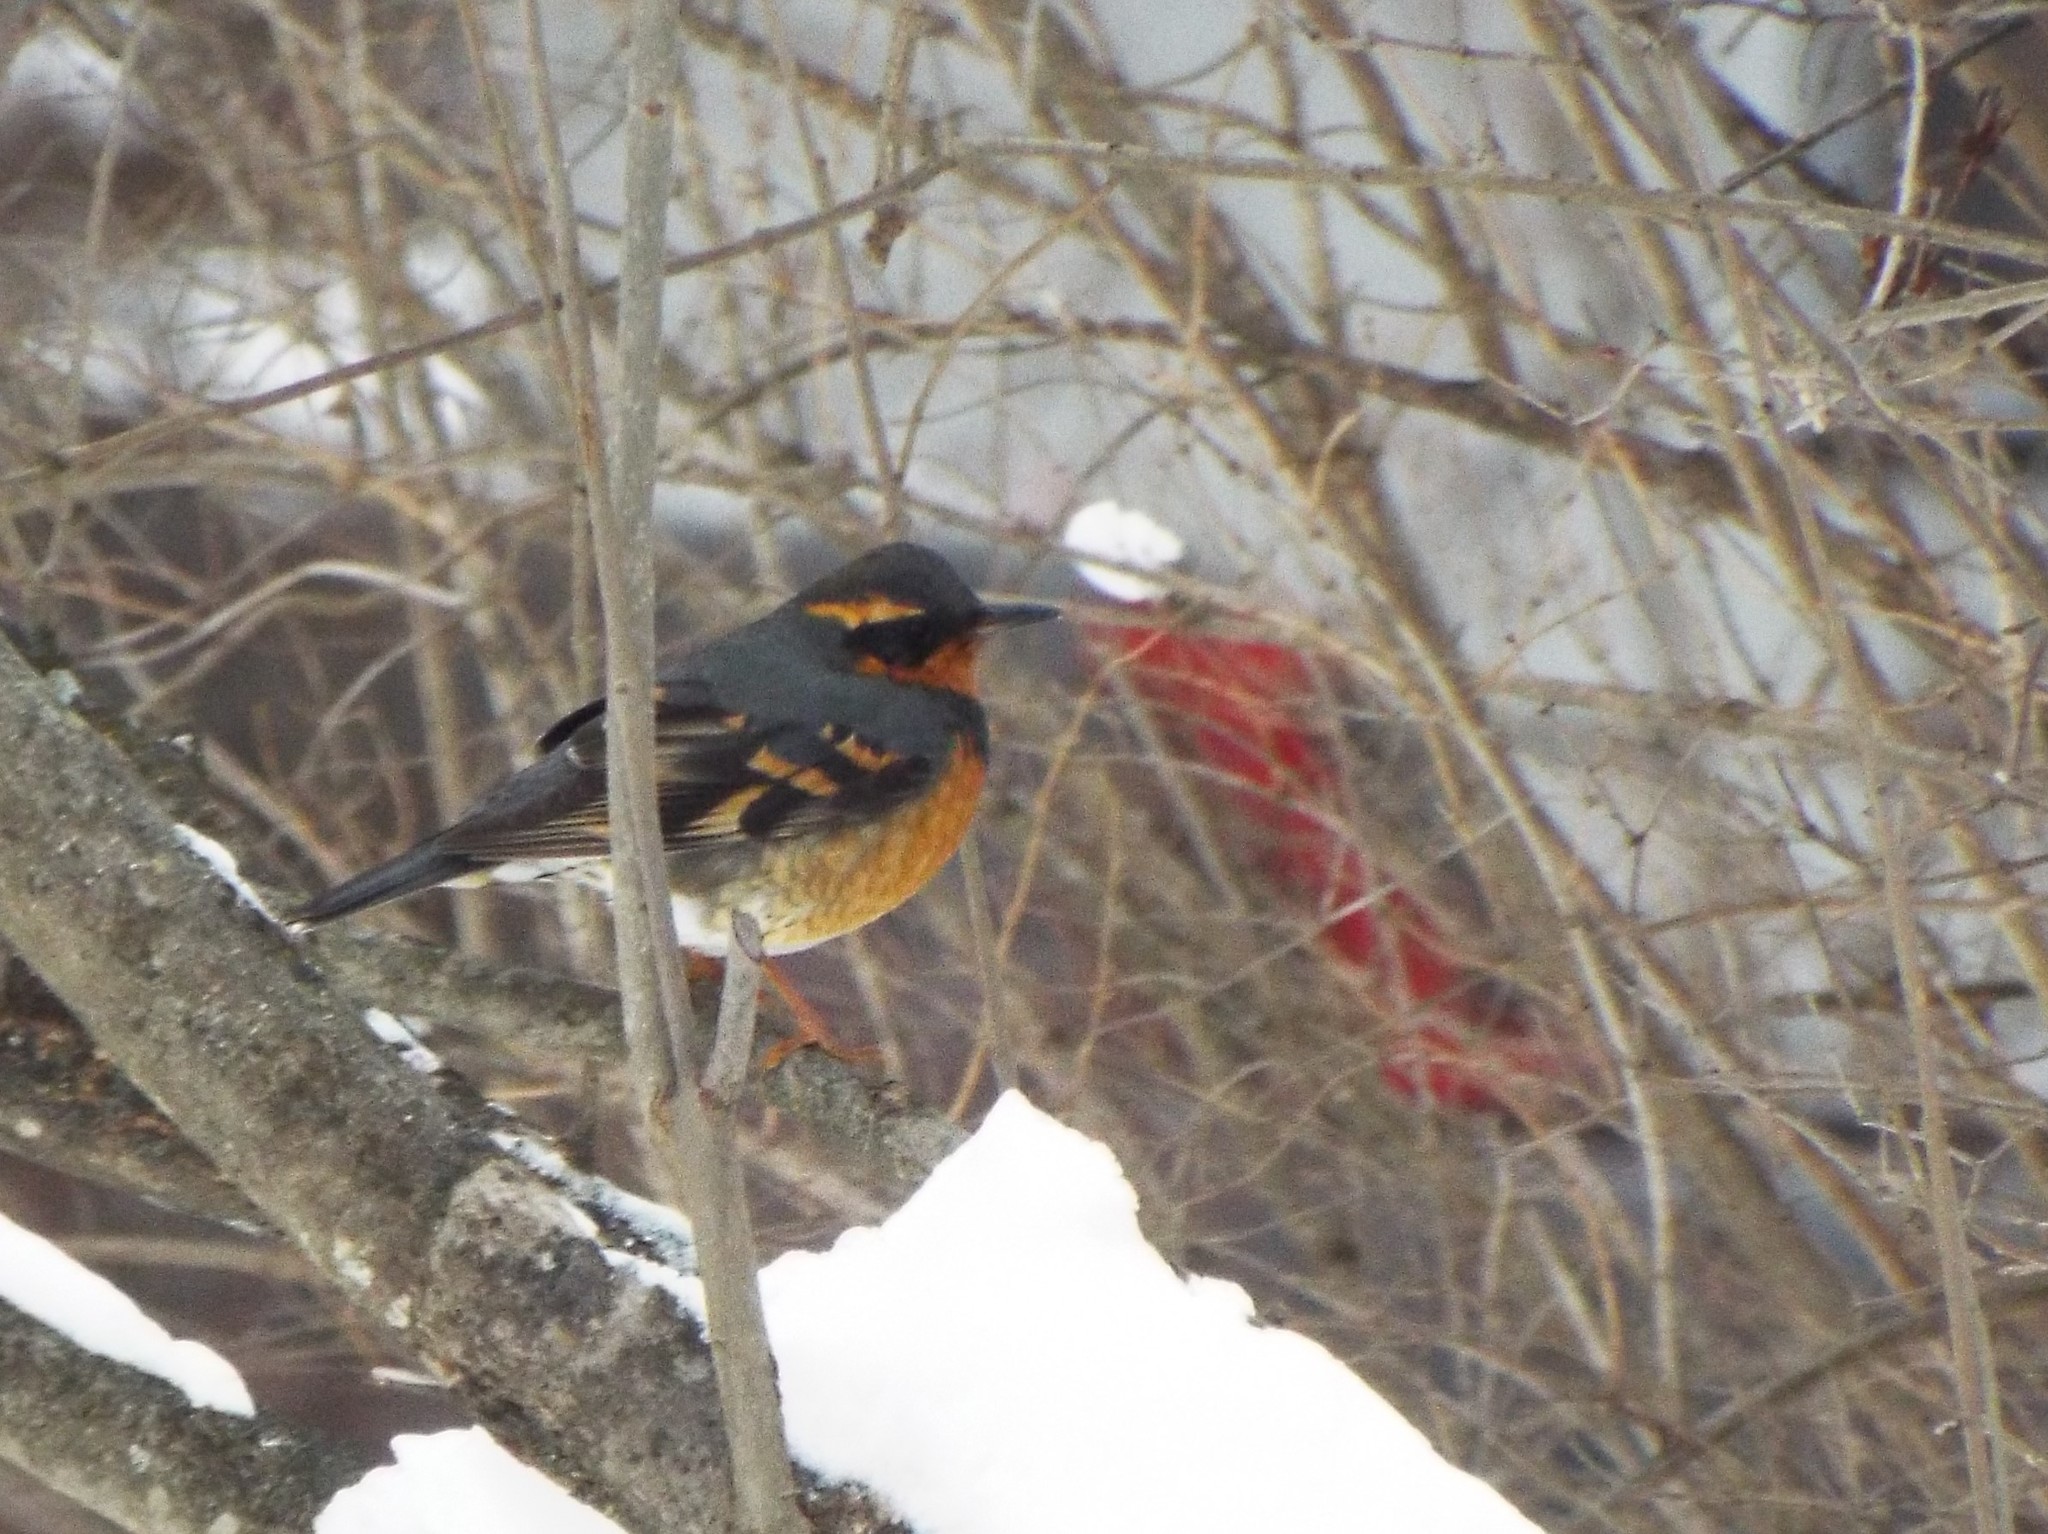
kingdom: Animalia
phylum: Chordata
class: Aves
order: Passeriformes
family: Turdidae
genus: Ixoreus
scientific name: Ixoreus naevius
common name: Varied thrush
